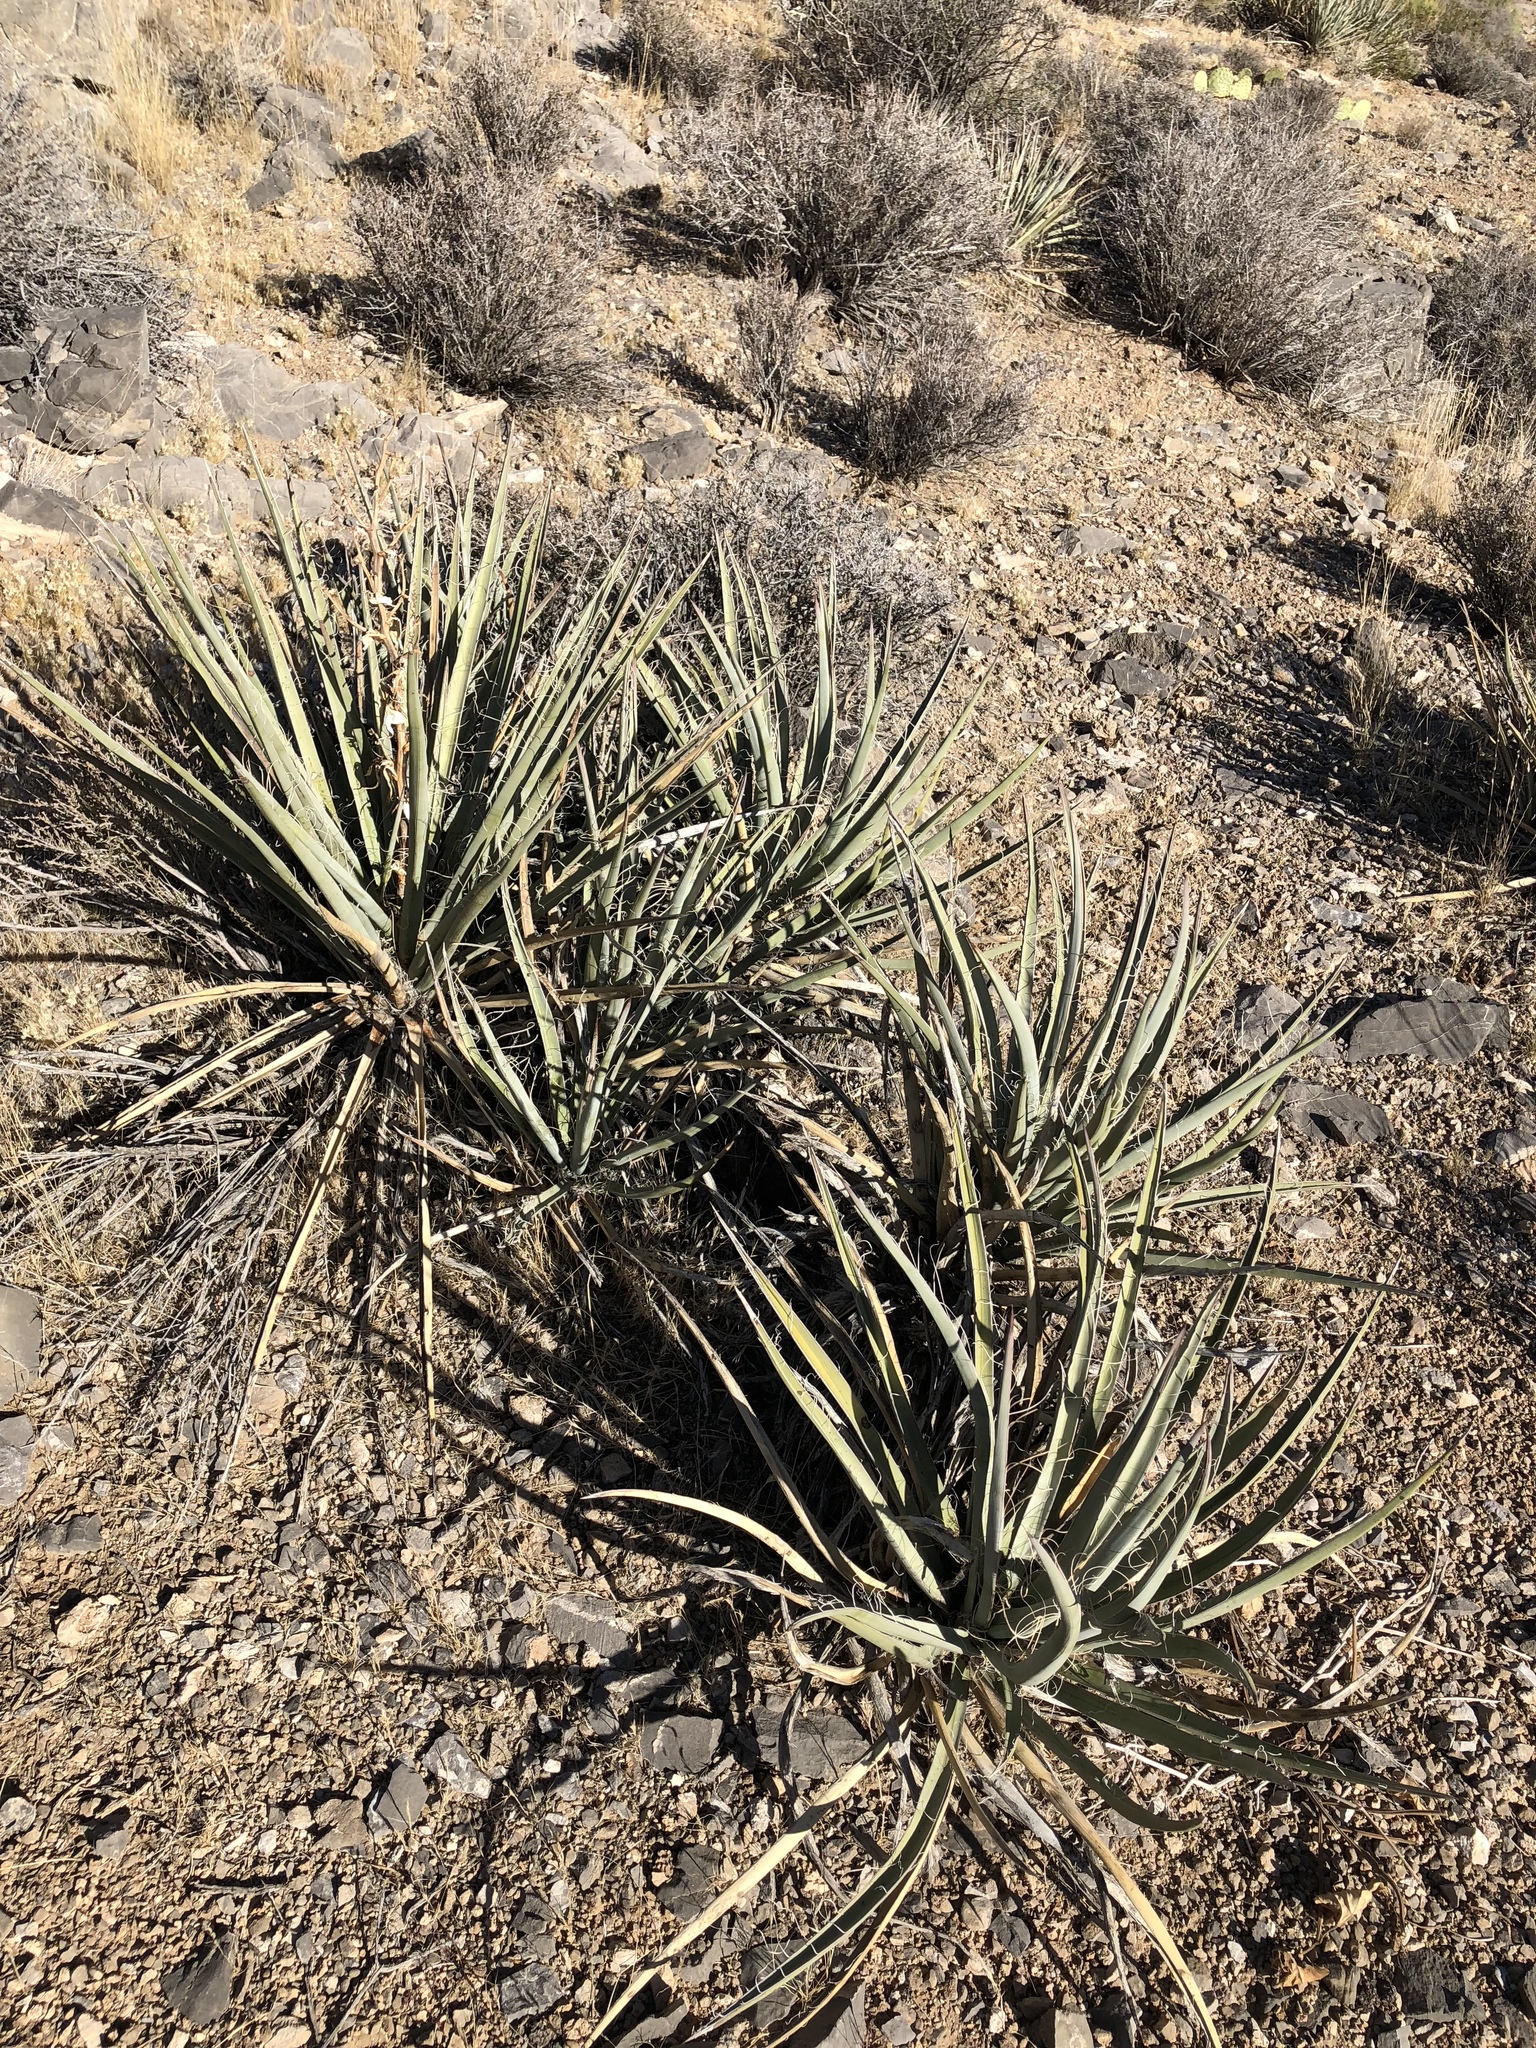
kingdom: Plantae
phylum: Tracheophyta
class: Liliopsida
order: Asparagales
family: Asparagaceae
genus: Yucca
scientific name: Yucca baccata
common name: Banana yucca
